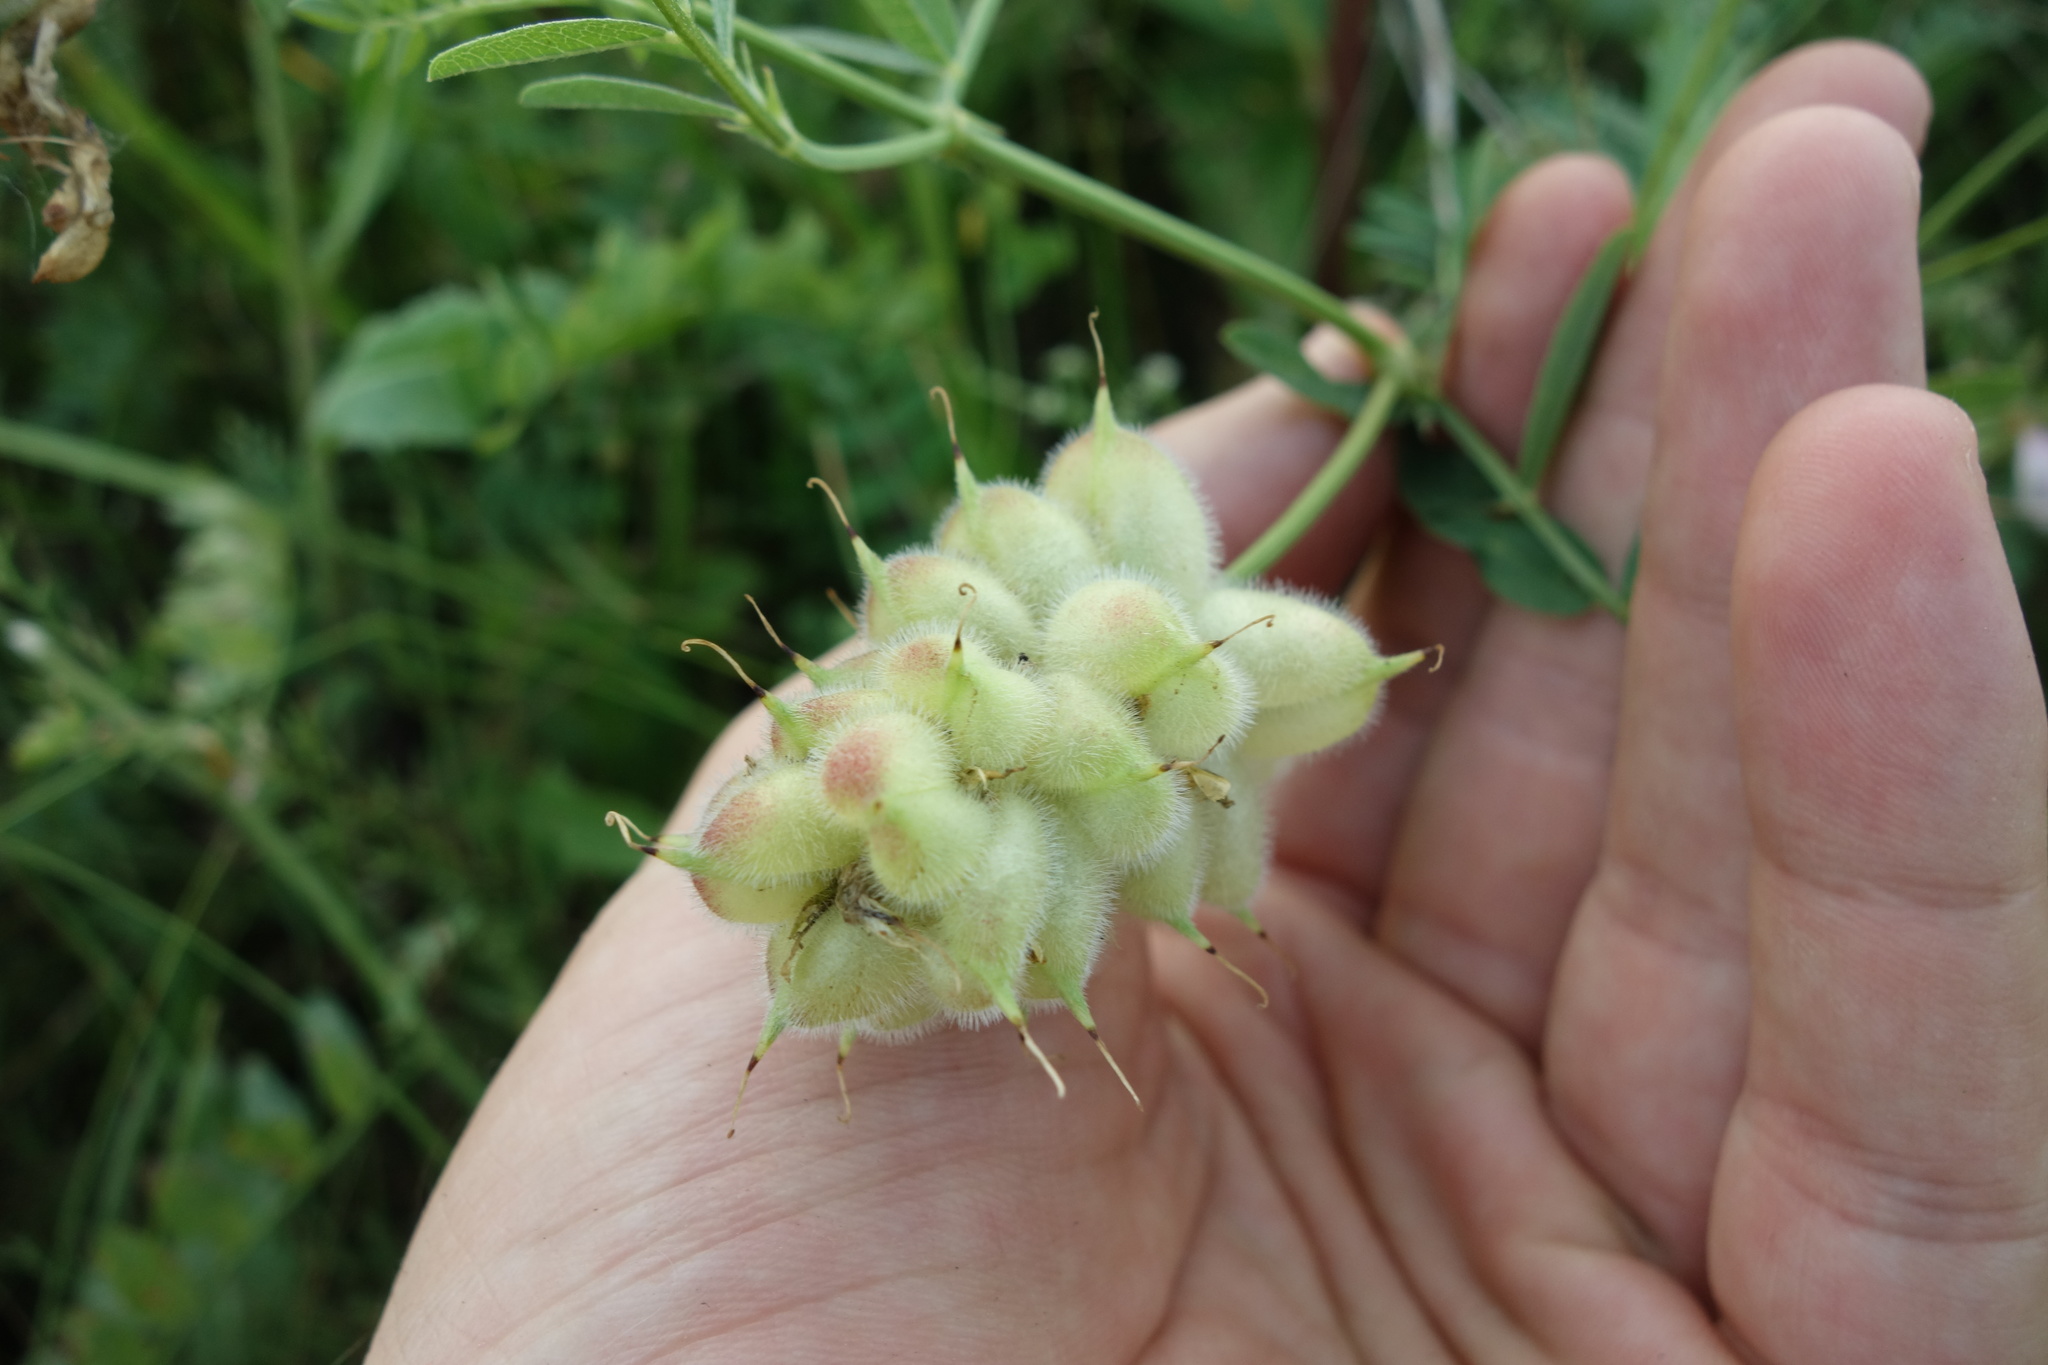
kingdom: Plantae
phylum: Tracheophyta
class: Magnoliopsida
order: Fabales
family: Fabaceae
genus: Astragalus
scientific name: Astragalus cicer
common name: Chick-pea milk-vetch
